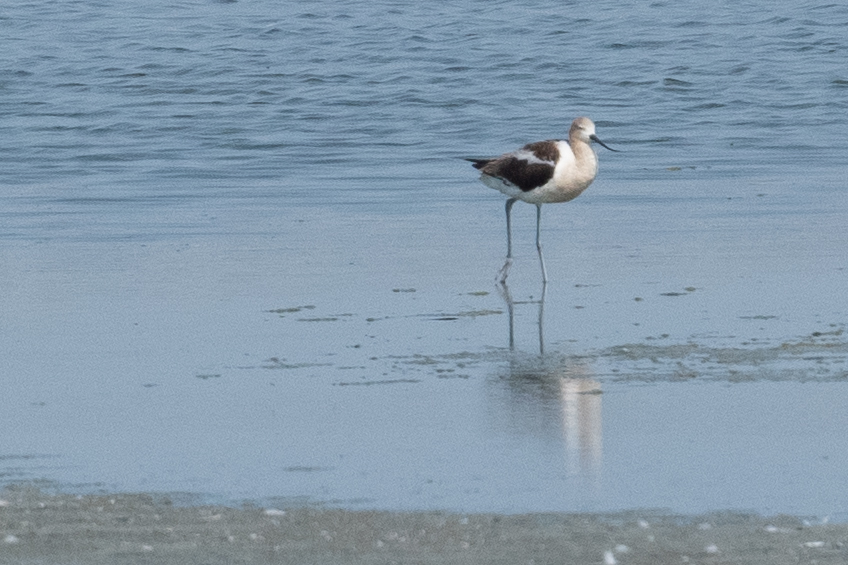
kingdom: Animalia
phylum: Chordata
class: Aves
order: Charadriiformes
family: Recurvirostridae
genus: Recurvirostra
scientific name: Recurvirostra americana
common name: American avocet
